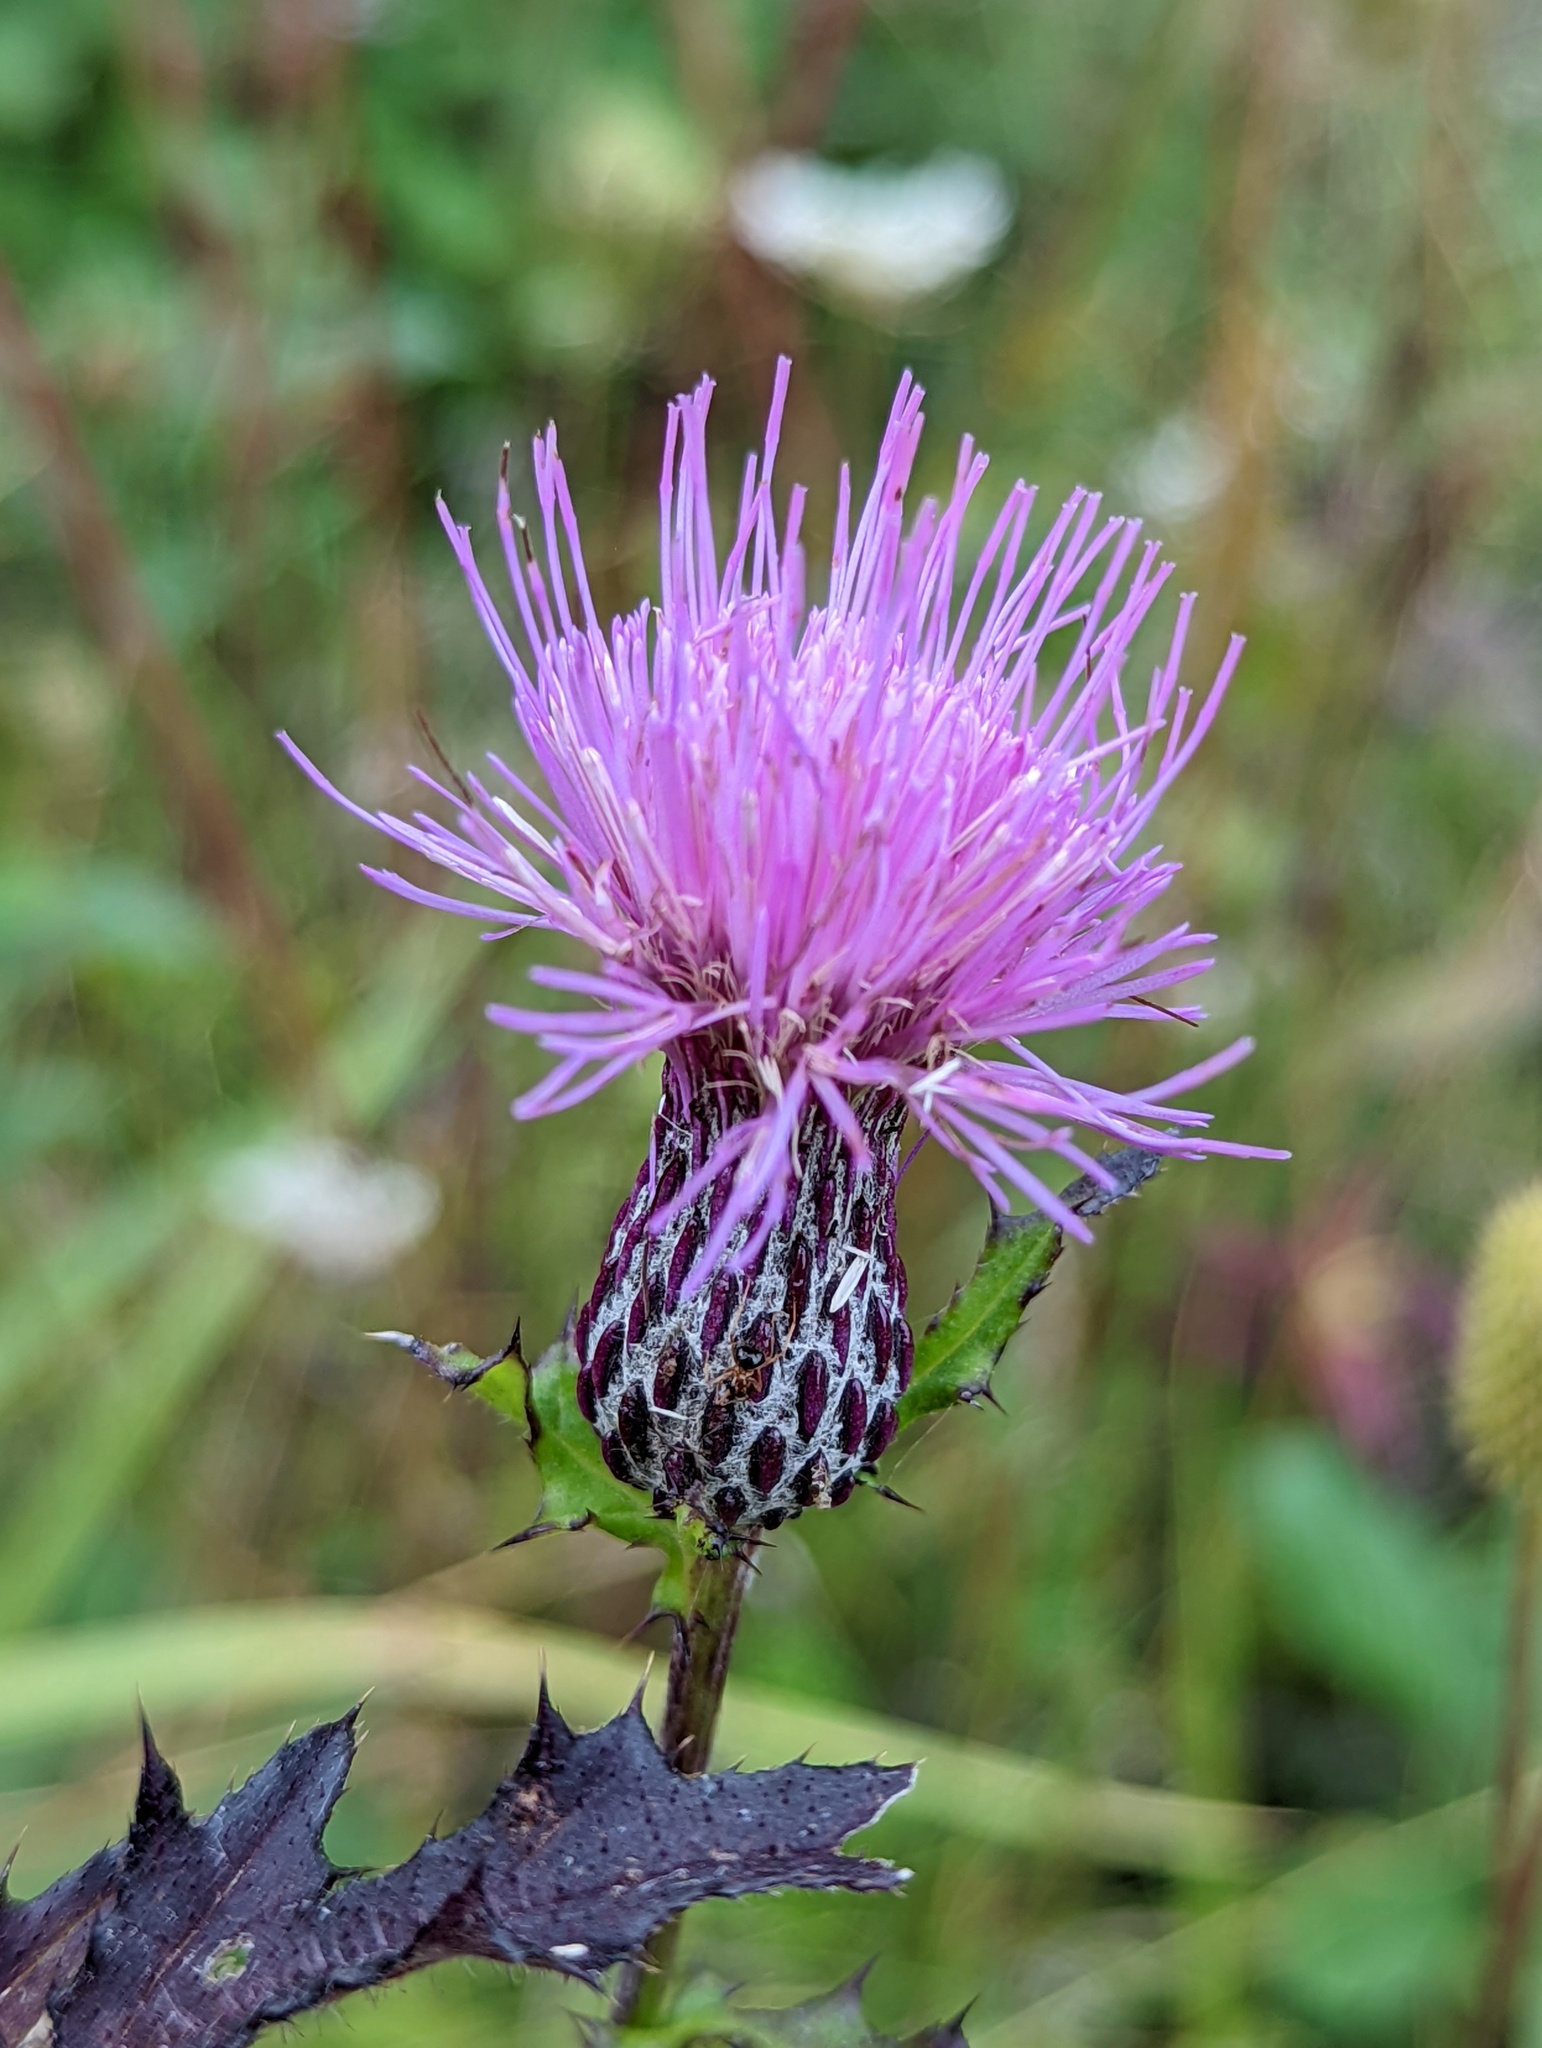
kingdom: Plantae
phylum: Tracheophyta
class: Magnoliopsida
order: Asterales
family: Asteraceae
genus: Cirsium
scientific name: Cirsium muticum
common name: Dunce-nettle
